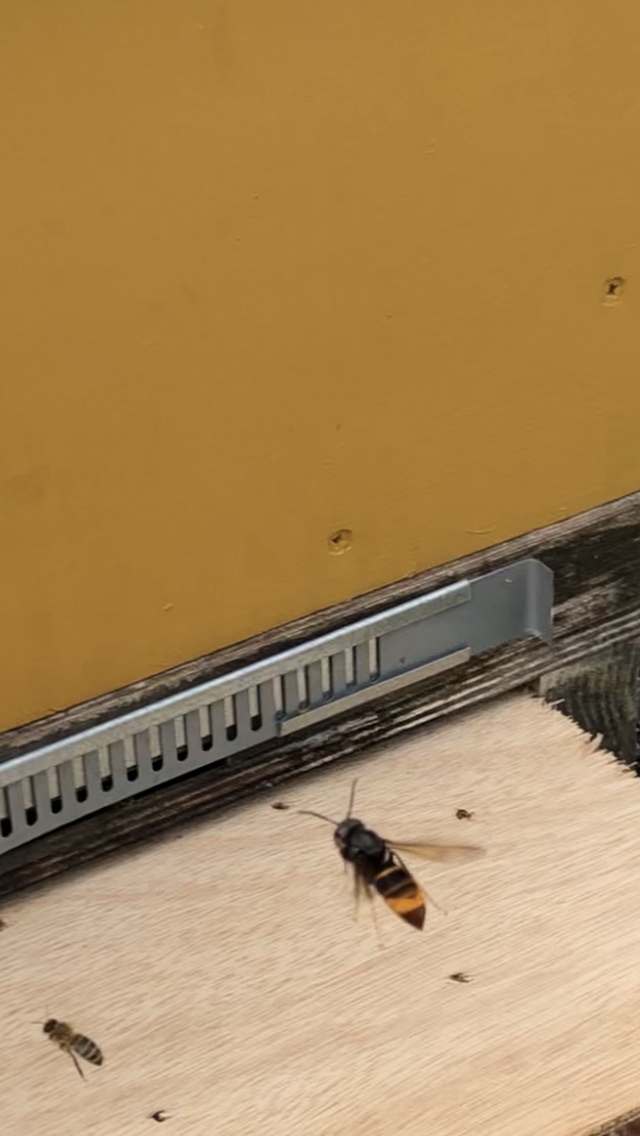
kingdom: Animalia
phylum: Arthropoda
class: Insecta
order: Hymenoptera
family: Vespidae
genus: Vespa
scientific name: Vespa velutina
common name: Asian hornet
